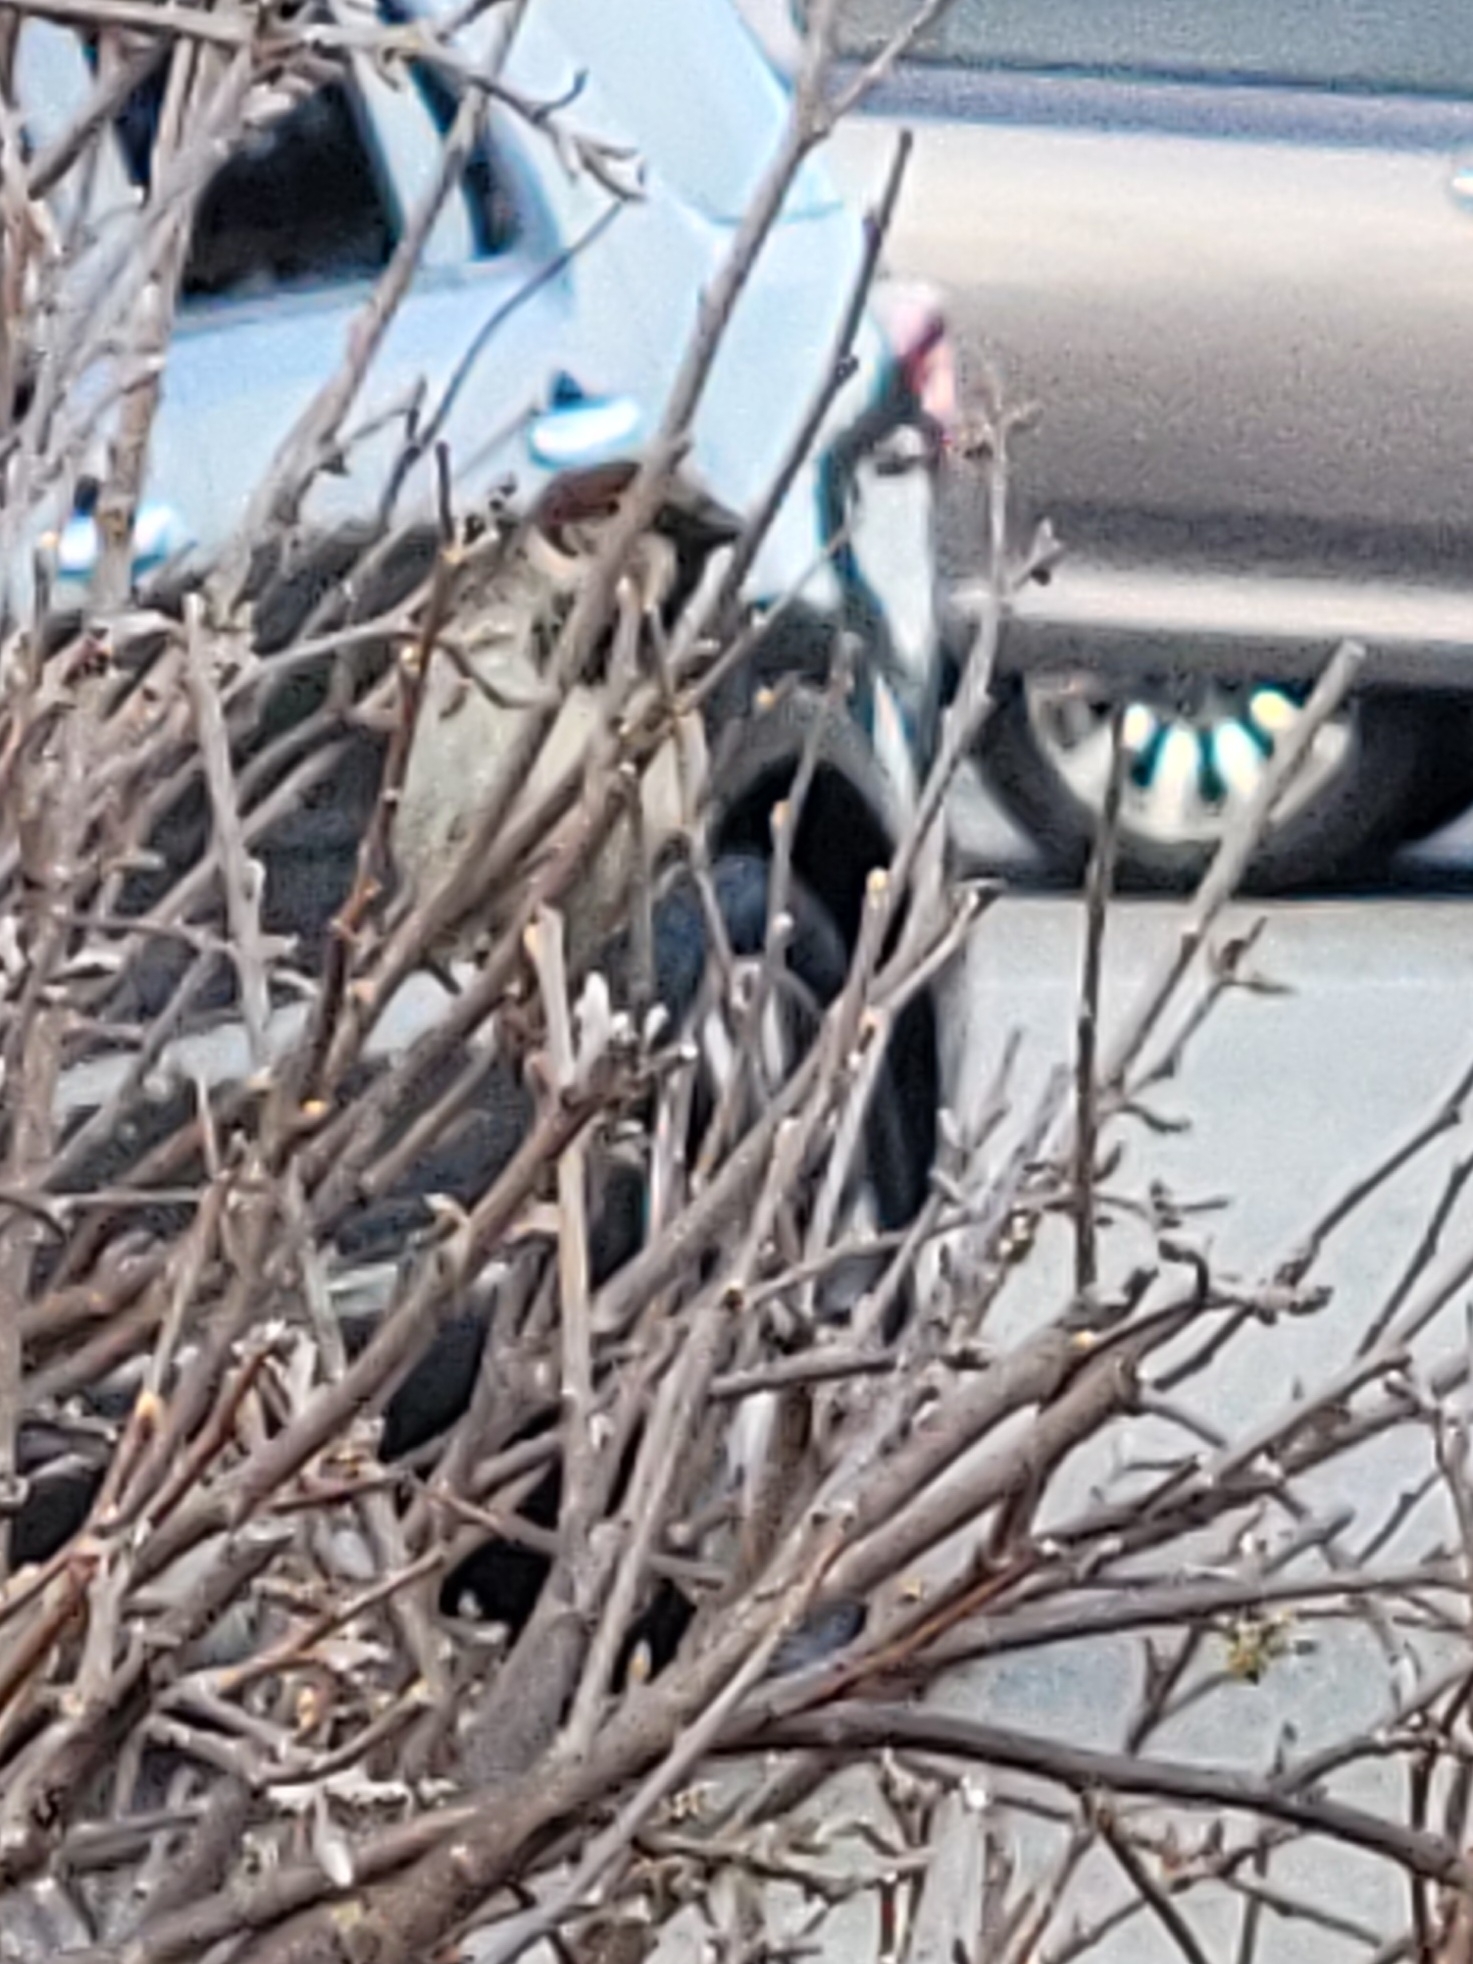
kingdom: Animalia
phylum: Chordata
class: Aves
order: Passeriformes
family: Passeridae
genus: Passer
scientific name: Passer domesticus
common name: House sparrow
